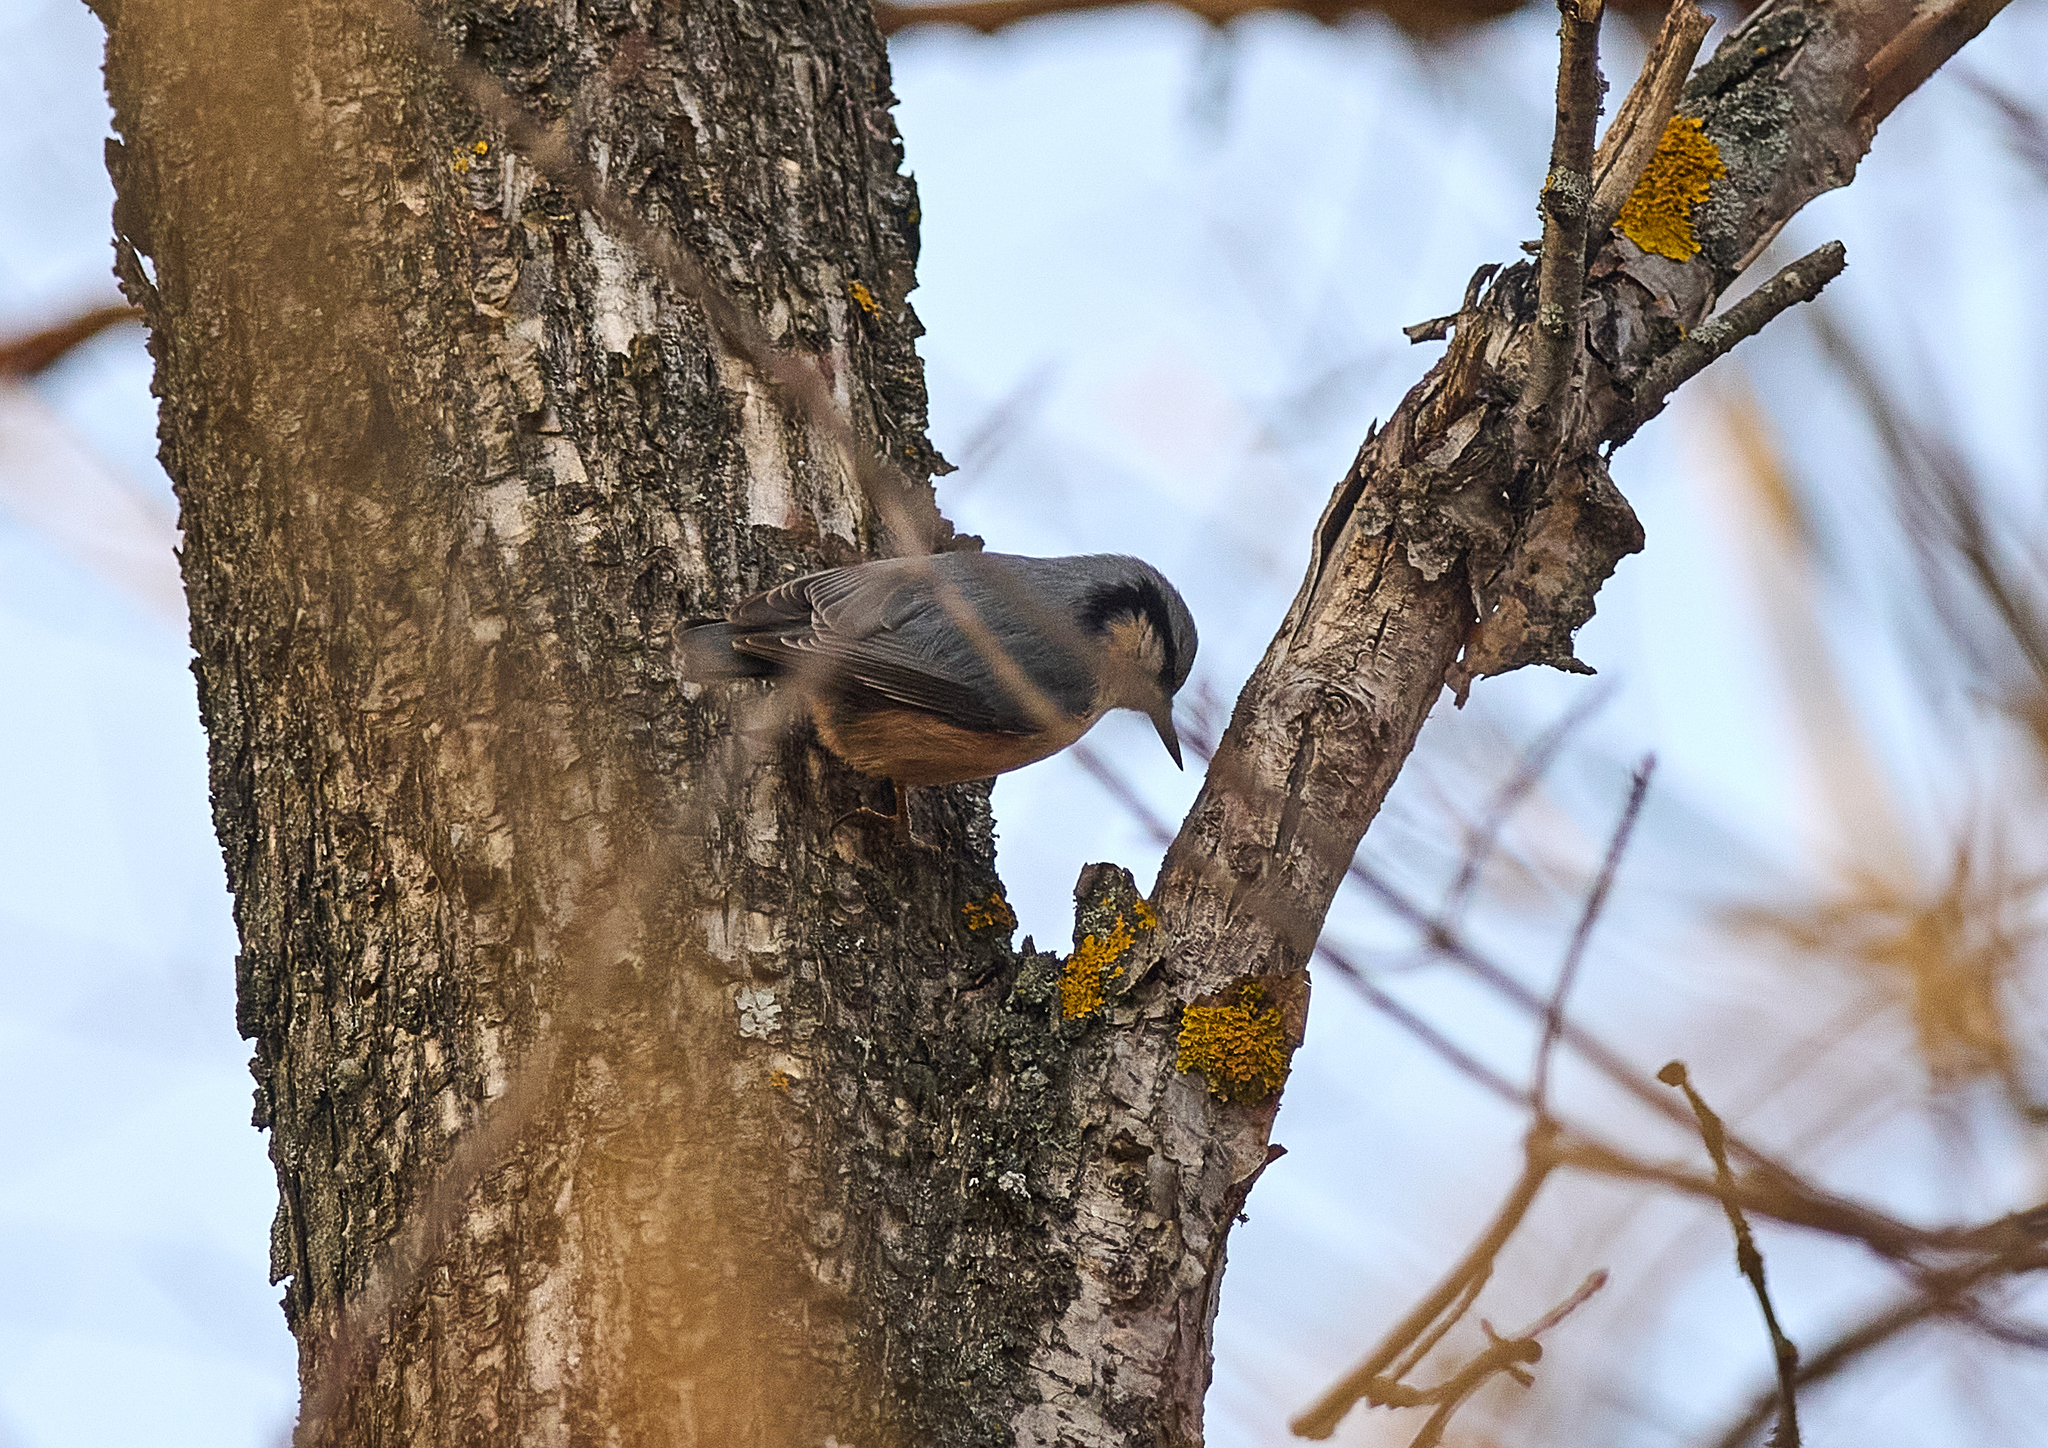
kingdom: Animalia
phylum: Chordata
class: Aves
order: Passeriformes
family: Sittidae
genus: Sitta
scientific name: Sitta europaea
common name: Eurasian nuthatch
